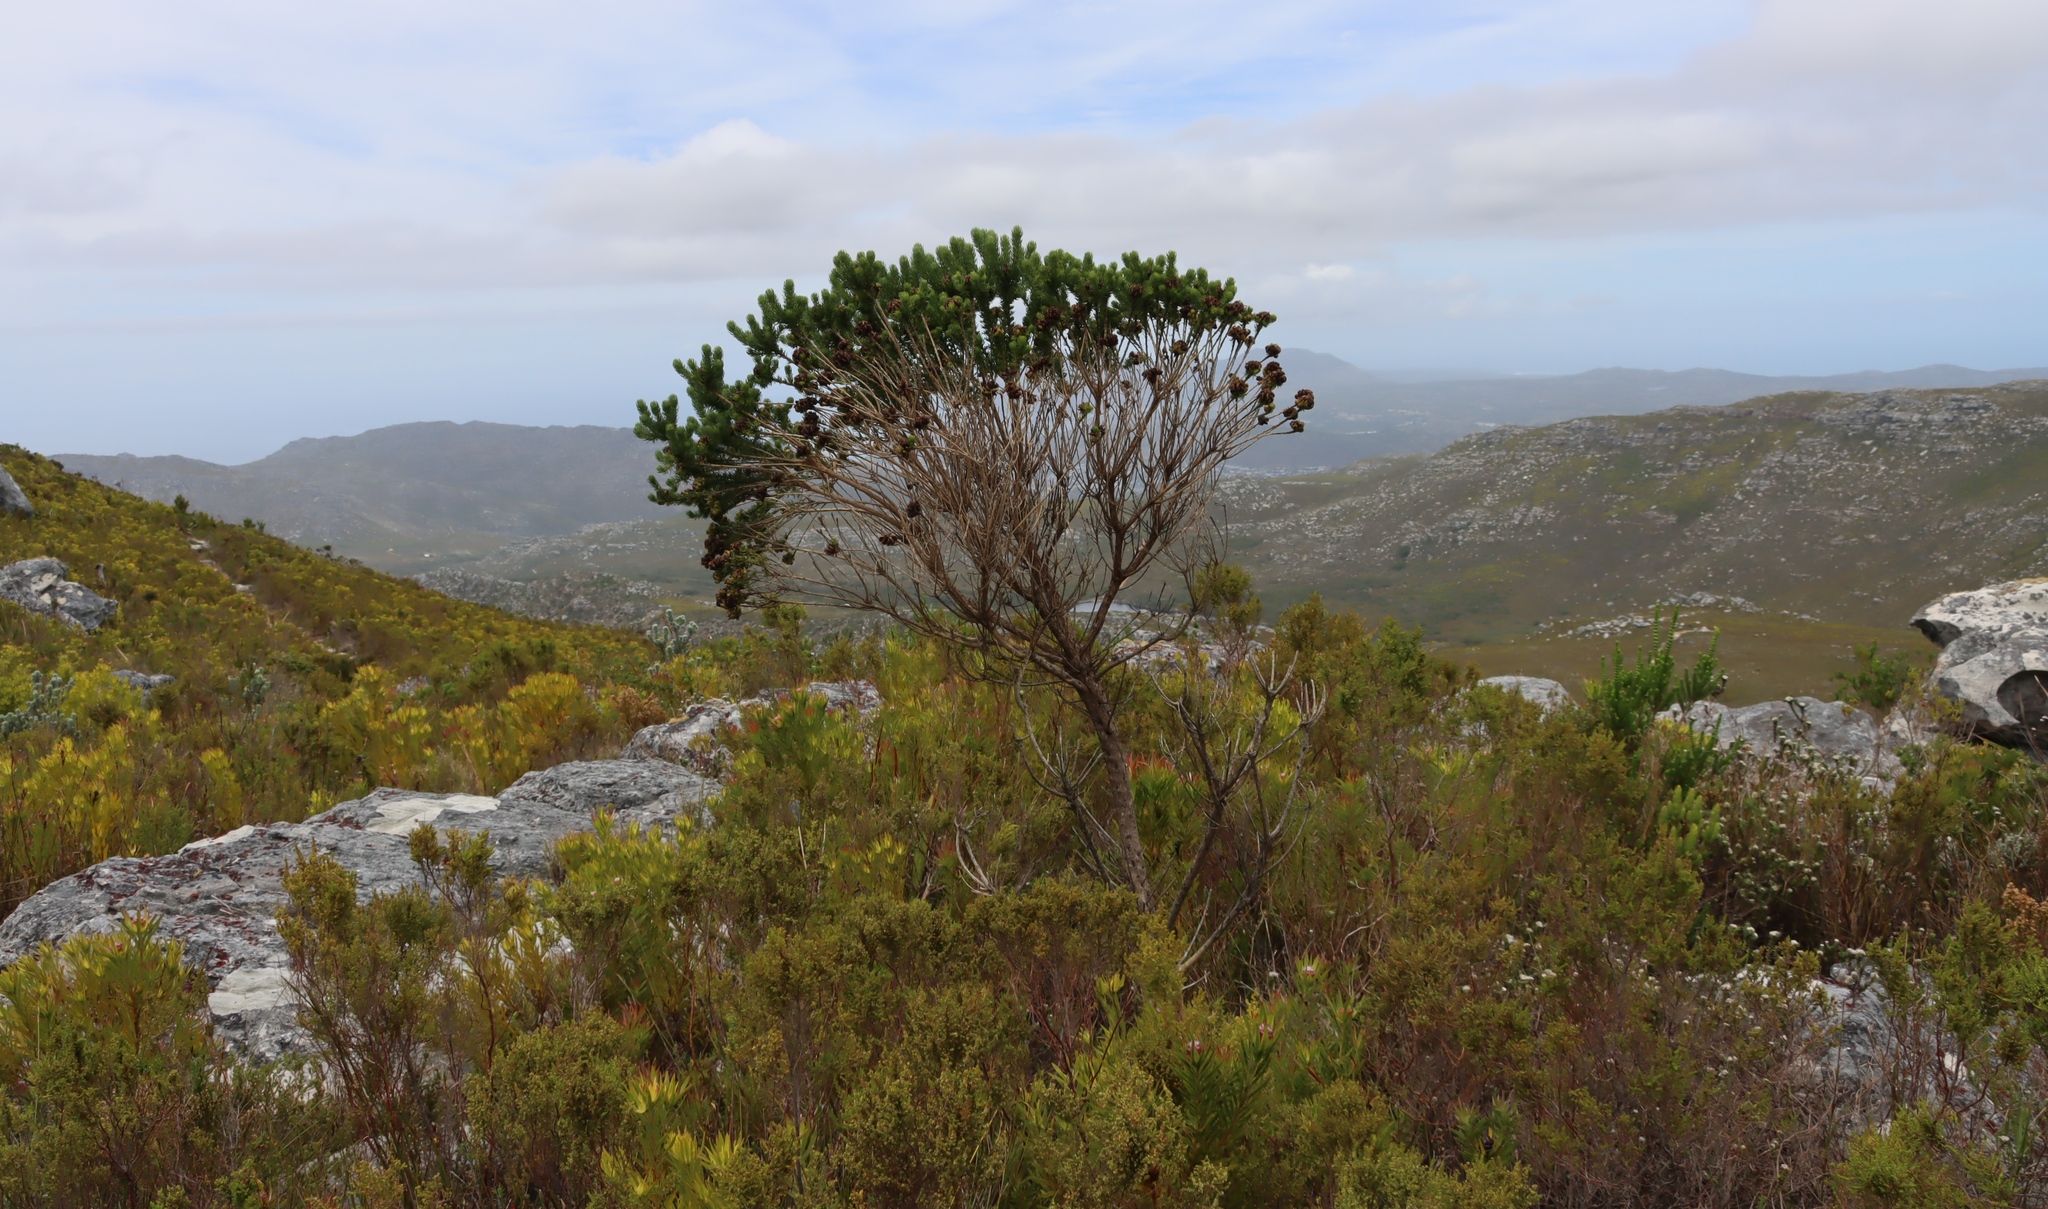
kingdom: Plantae
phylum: Tracheophyta
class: Magnoliopsida
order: Fabales
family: Fabaceae
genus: Aspalathus
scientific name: Aspalathus capitata
